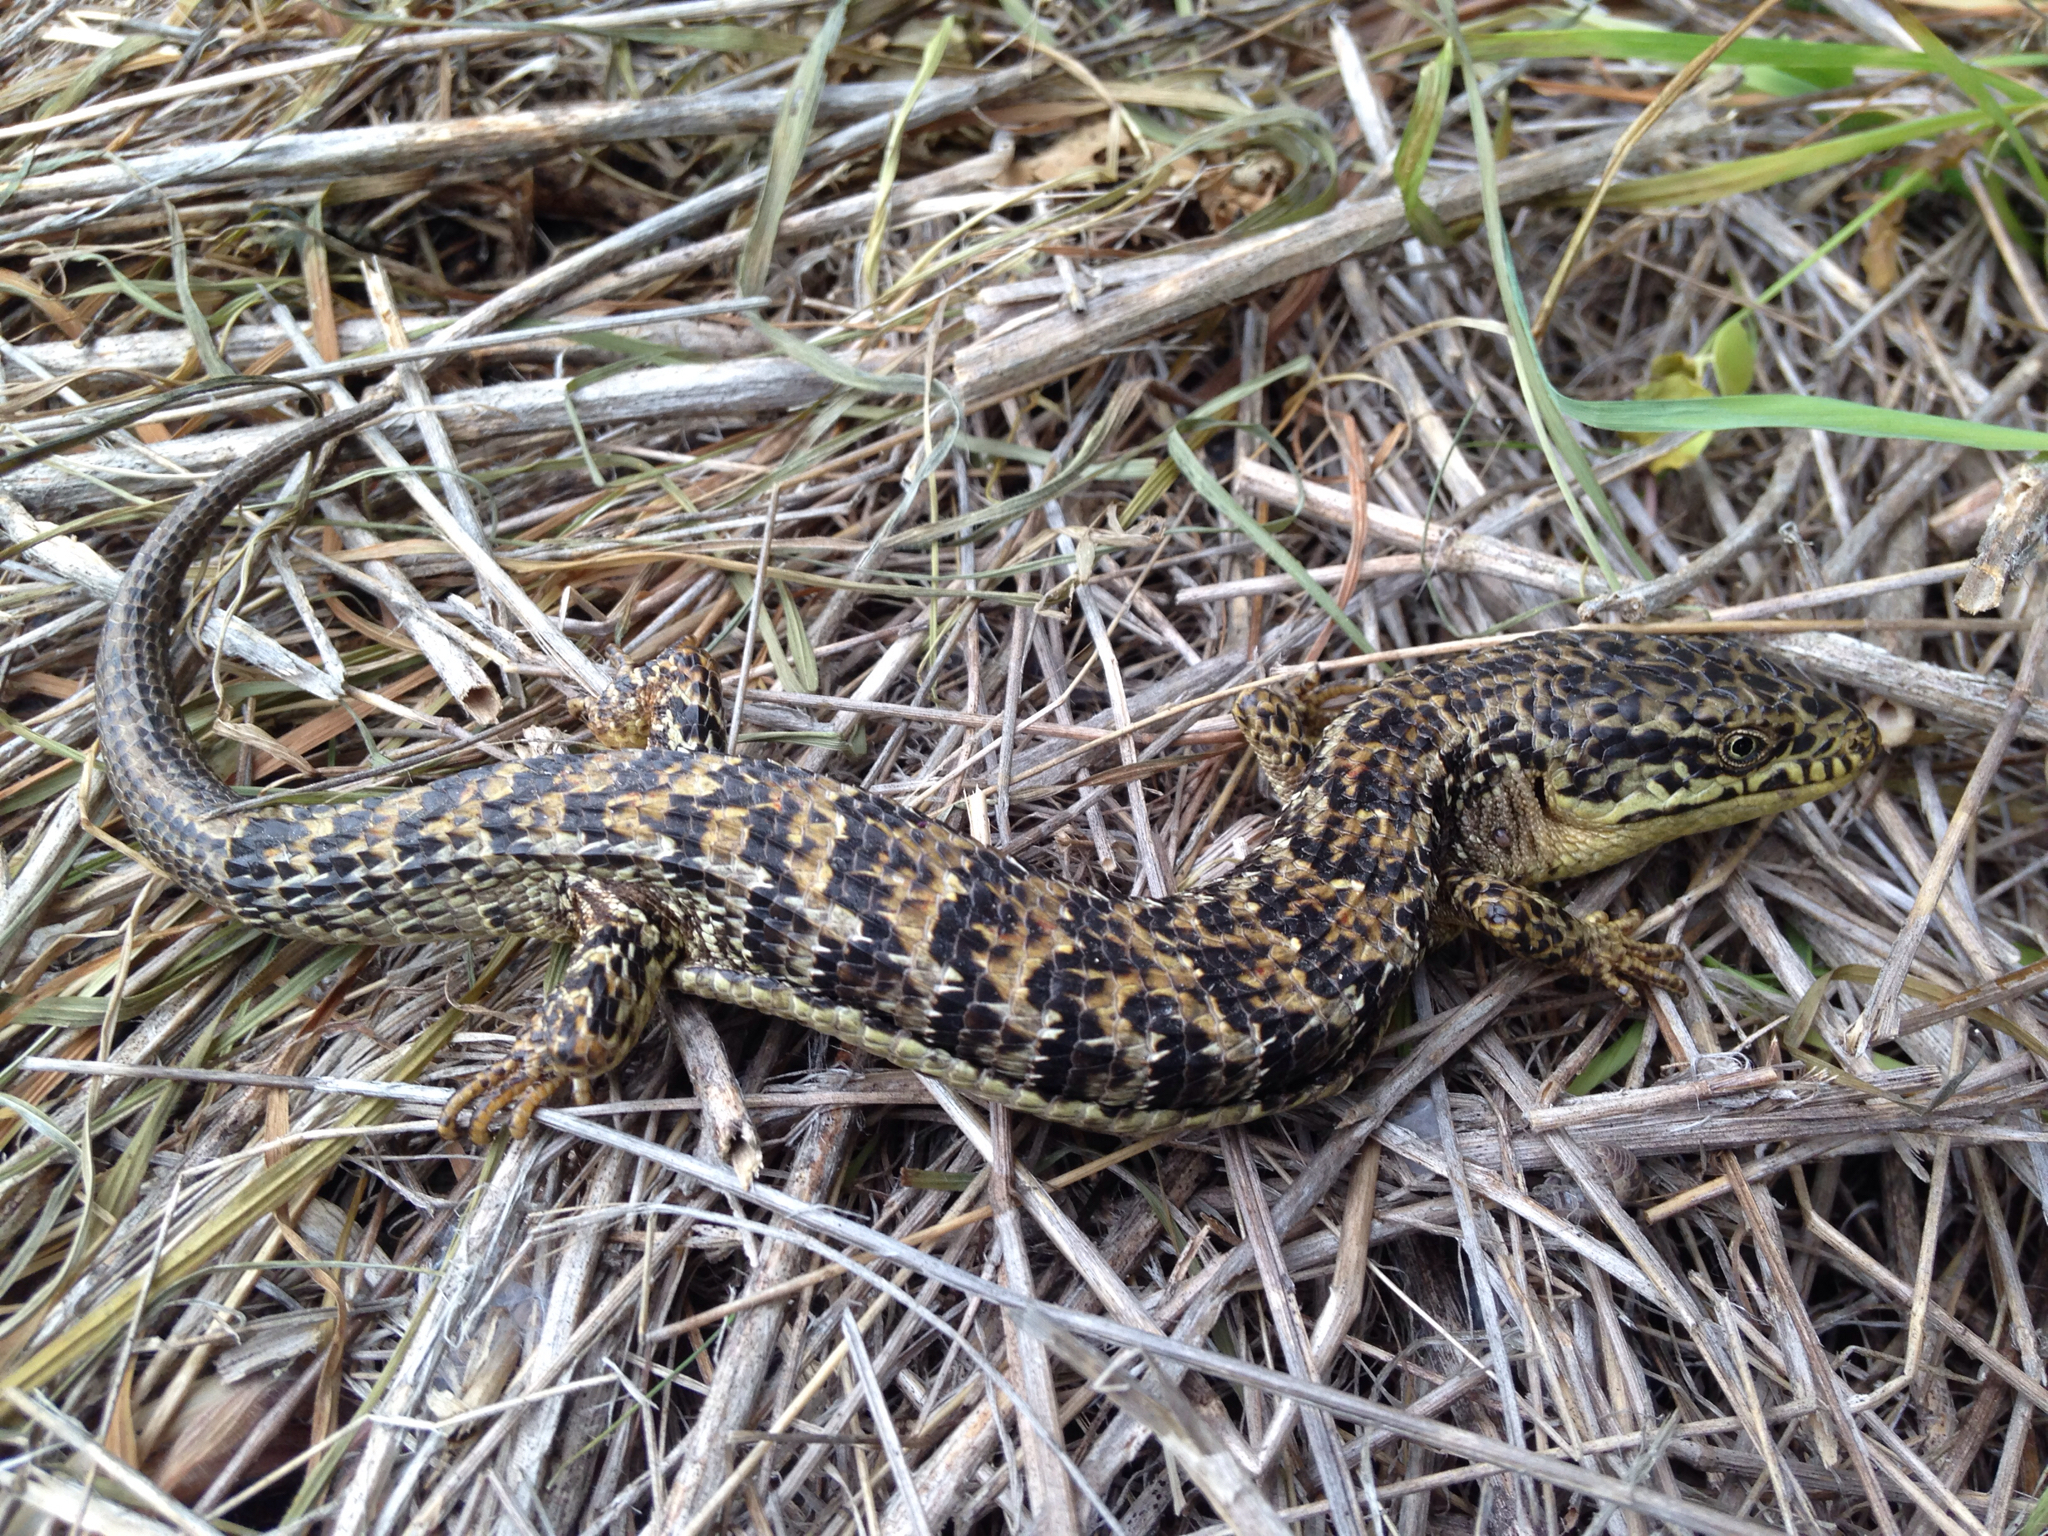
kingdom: Animalia
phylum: Chordata
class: Squamata
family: Anguidae
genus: Elgaria
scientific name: Elgaria multicarinata
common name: Southern alligator lizard
